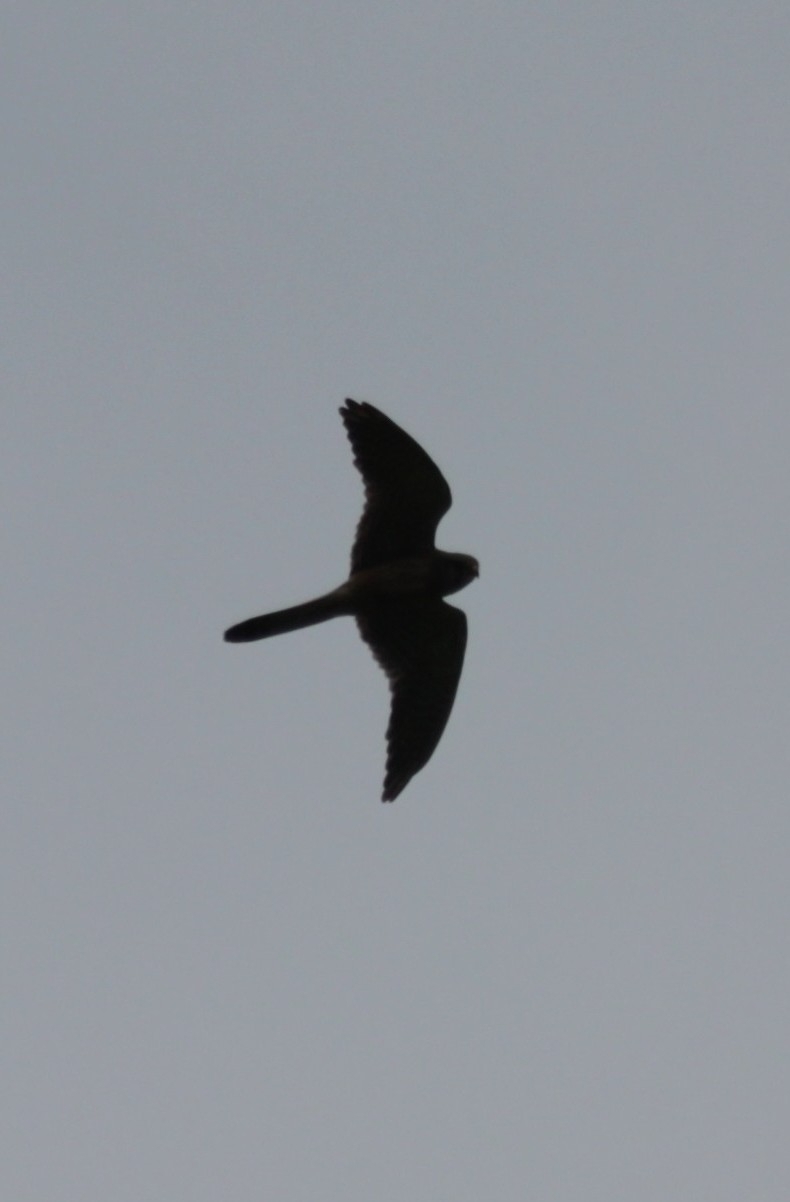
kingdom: Animalia
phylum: Chordata
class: Aves
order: Falconiformes
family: Falconidae
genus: Falco
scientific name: Falco tinnunculus
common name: Common kestrel
